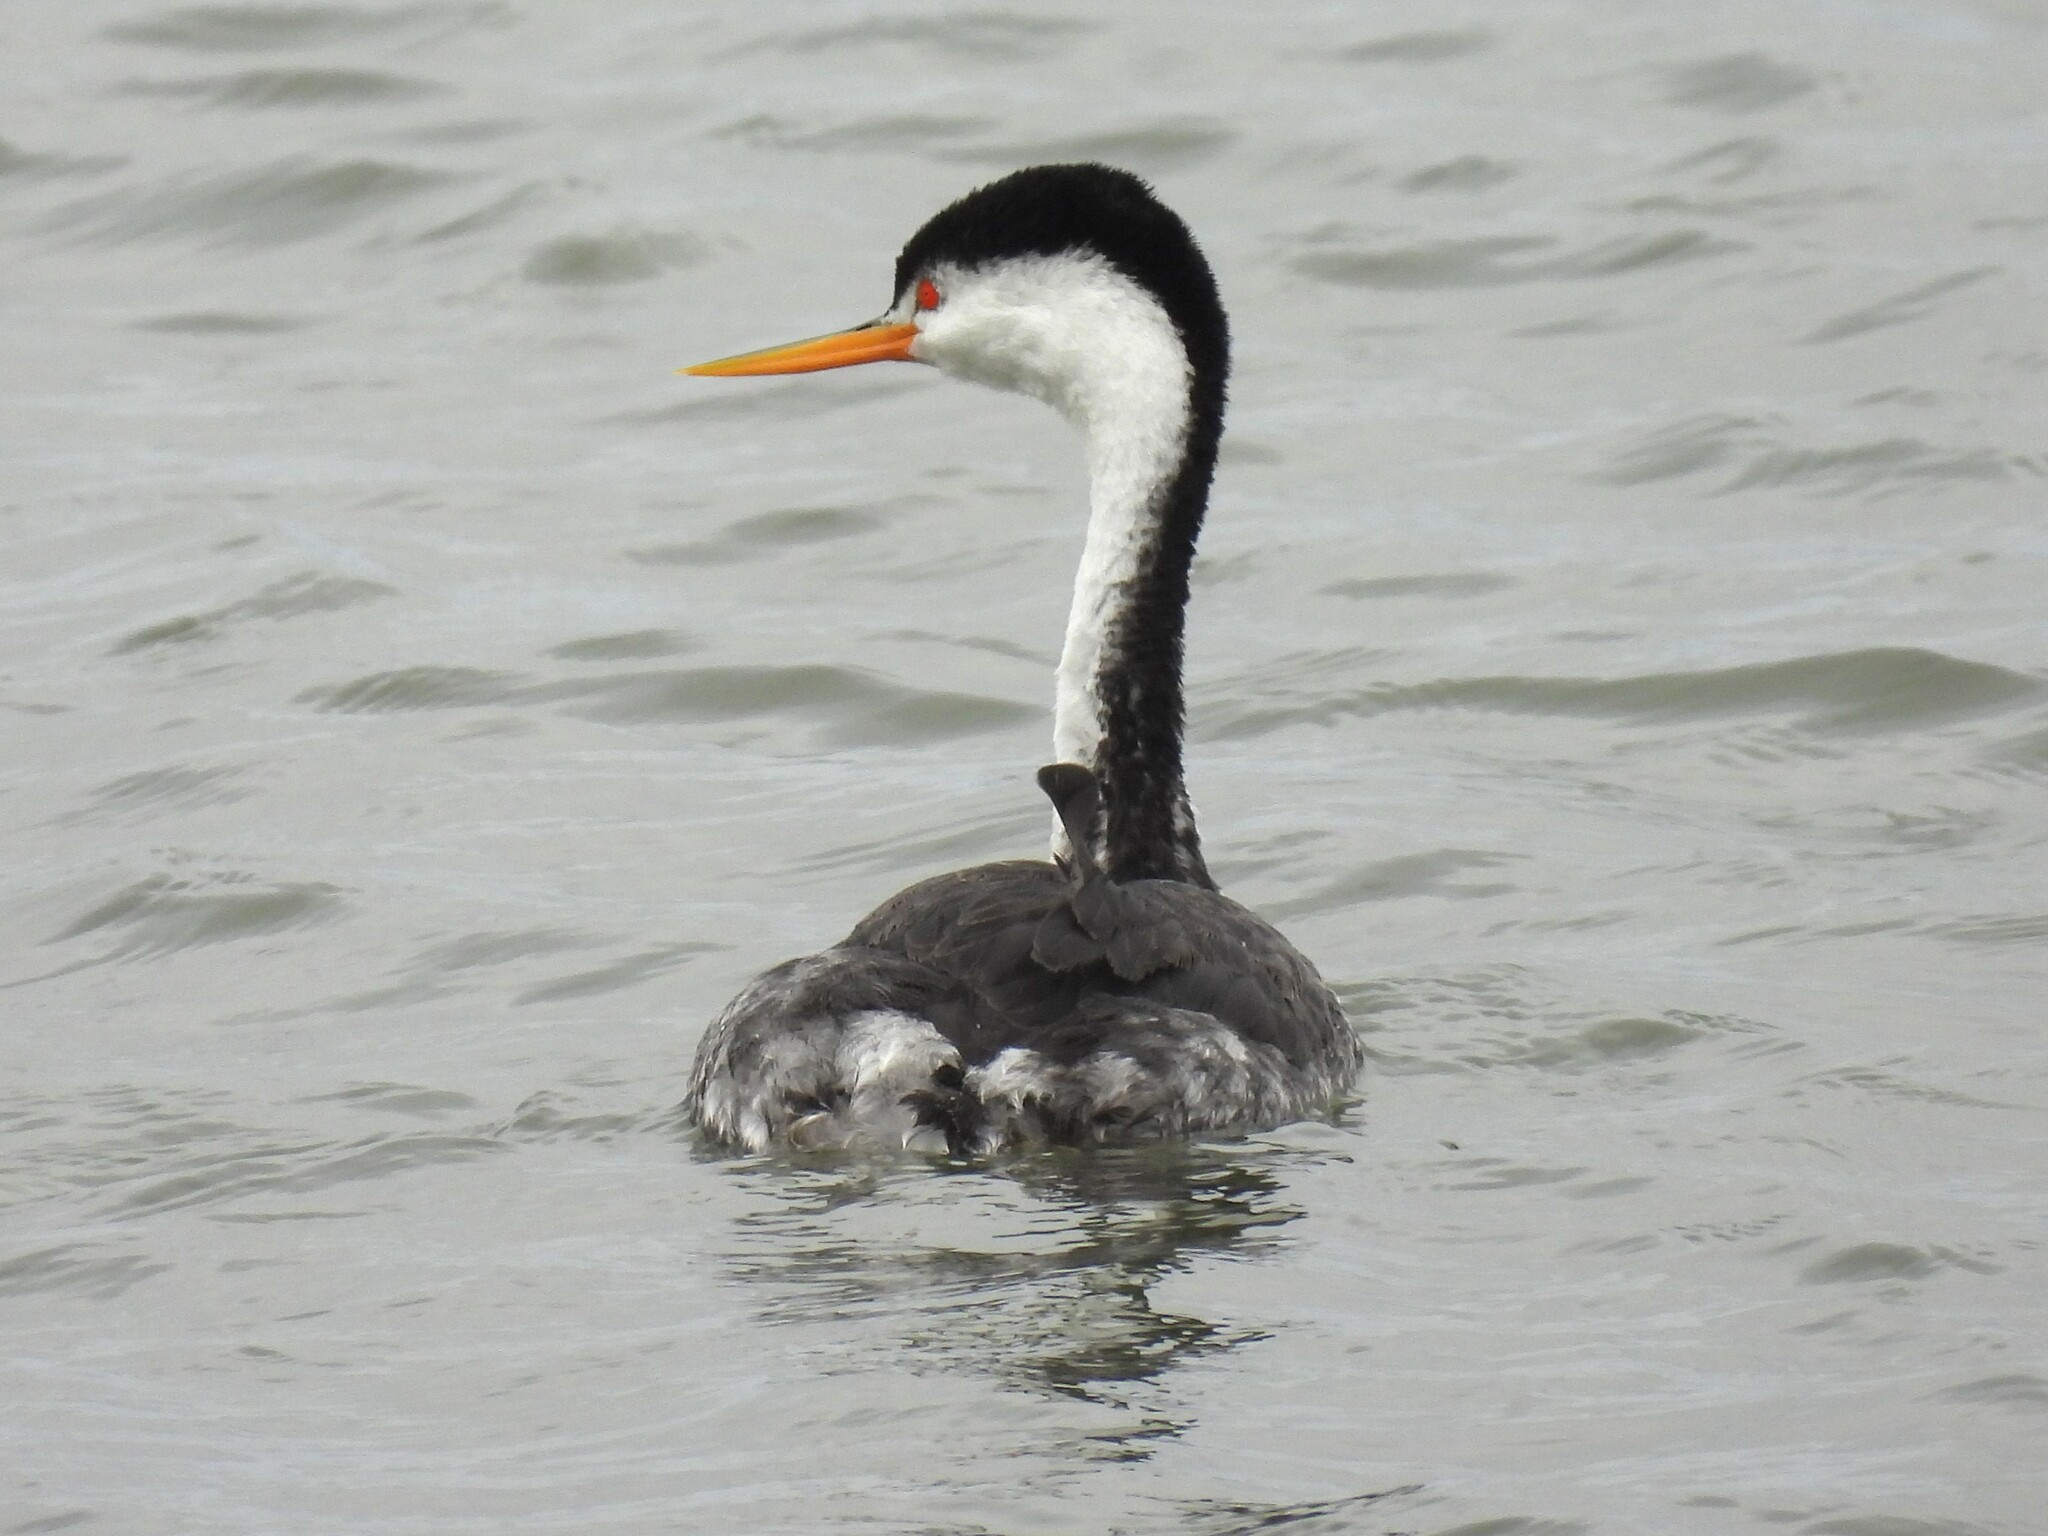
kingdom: Animalia
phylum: Chordata
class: Aves
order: Podicipediformes
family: Podicipedidae
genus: Aechmophorus
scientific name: Aechmophorus clarkii
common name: Clark's grebe
